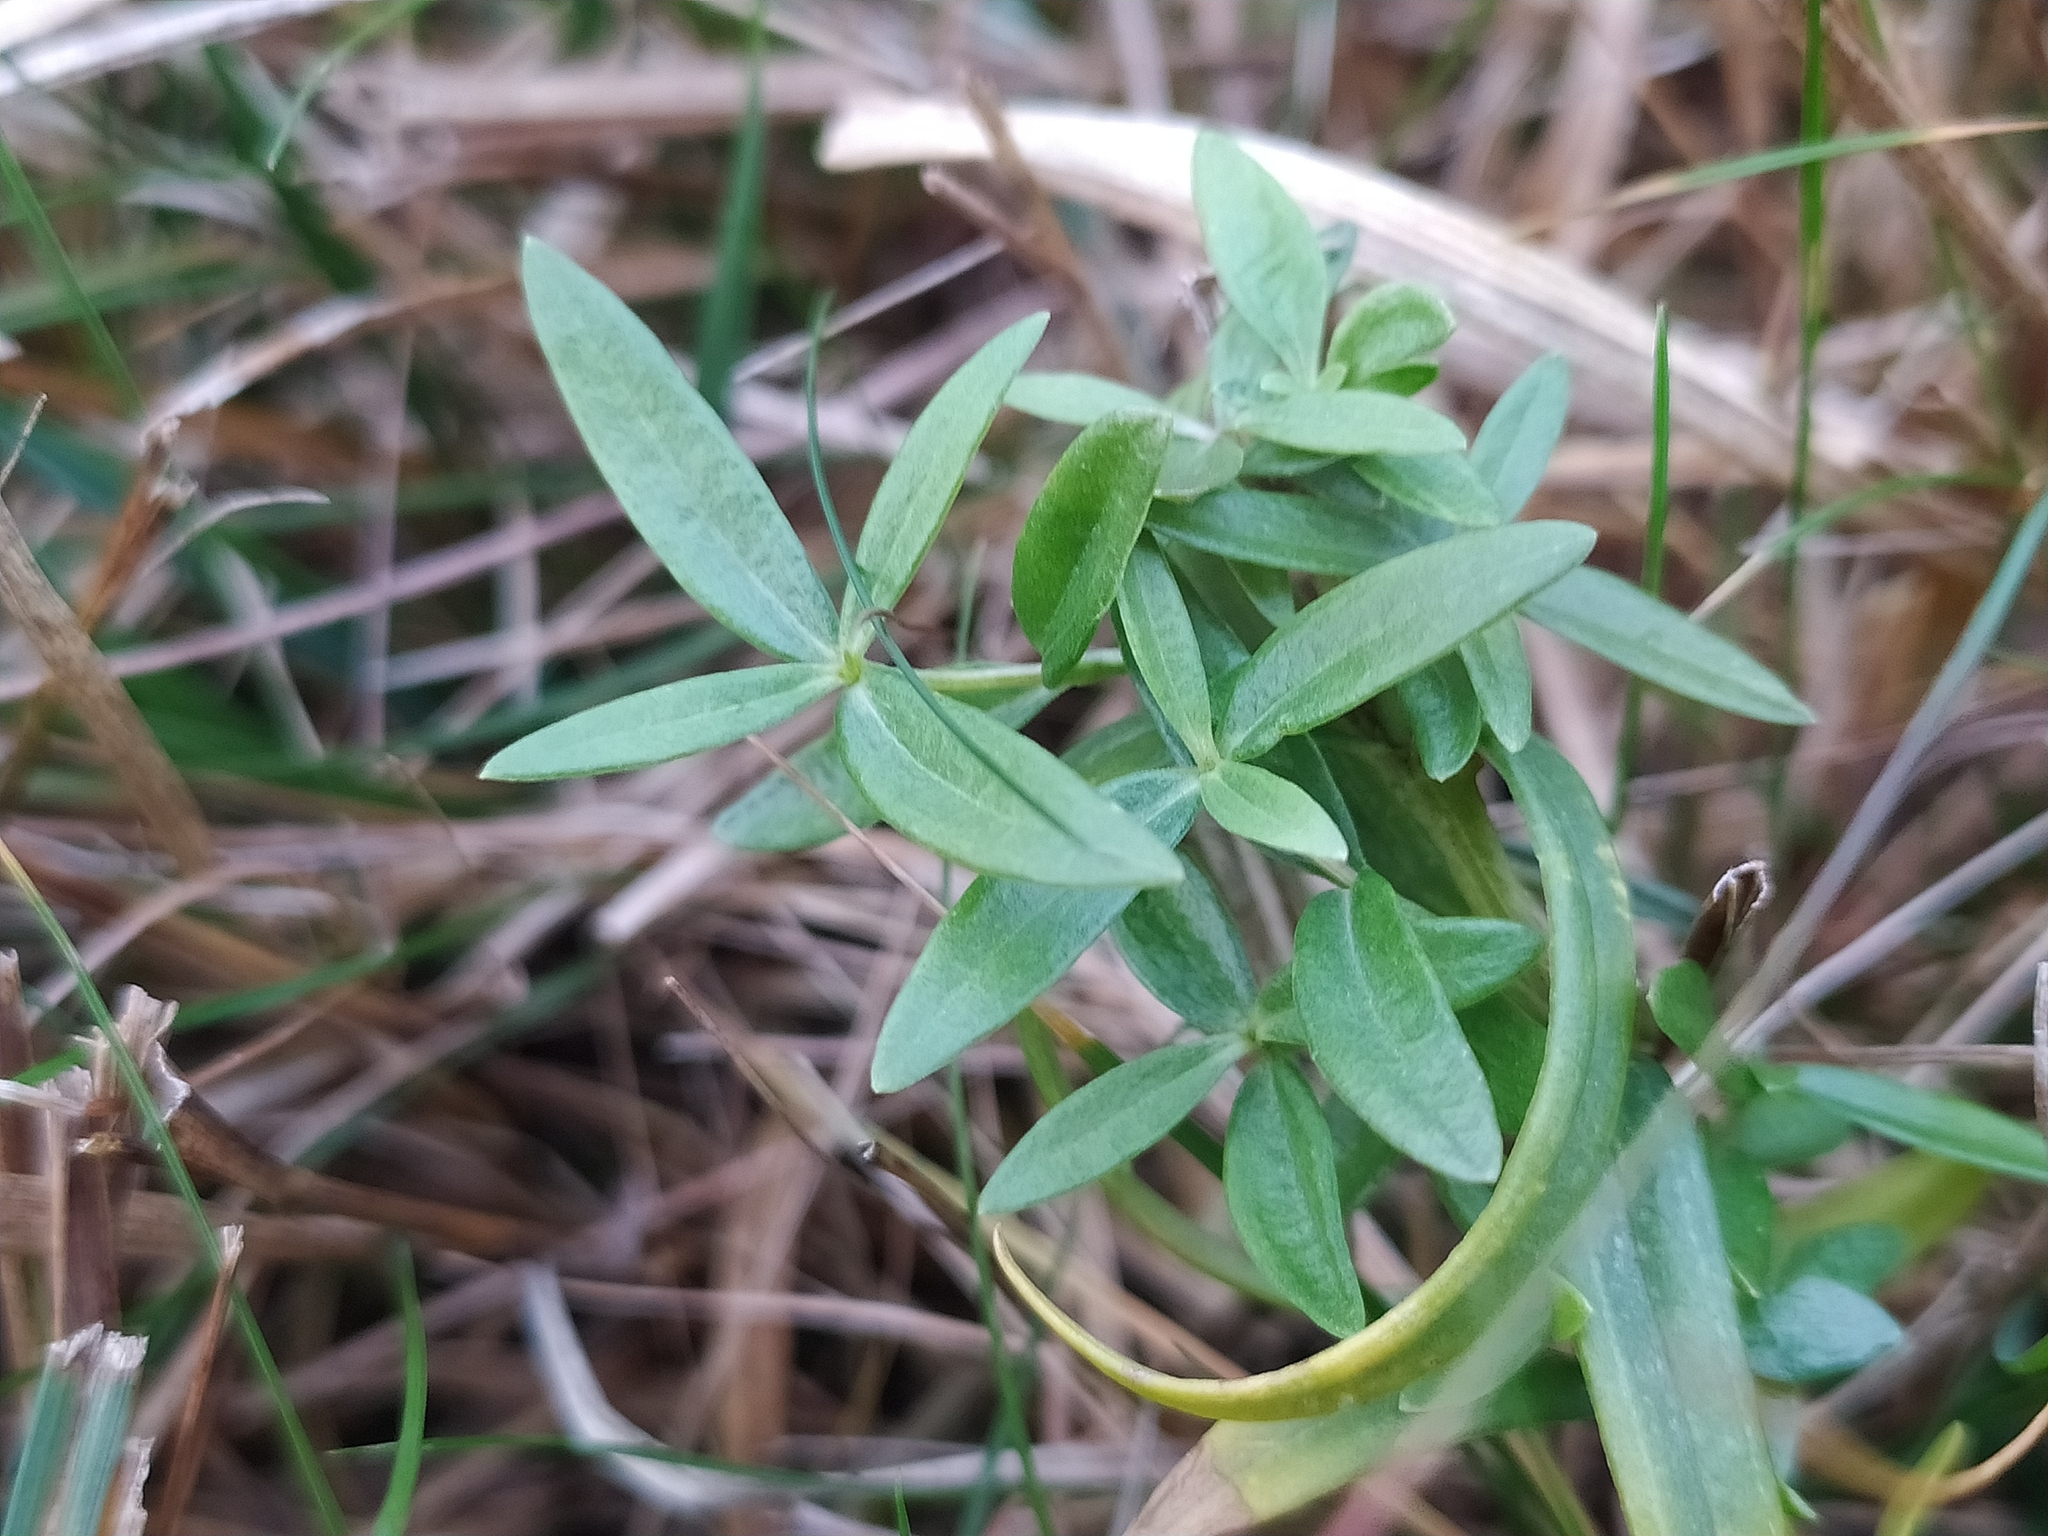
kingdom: Plantae
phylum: Tracheophyta
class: Magnoliopsida
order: Gentianales
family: Gentianaceae
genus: Gentiana
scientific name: Gentiana pneumonanthe
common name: Marsh gentian
